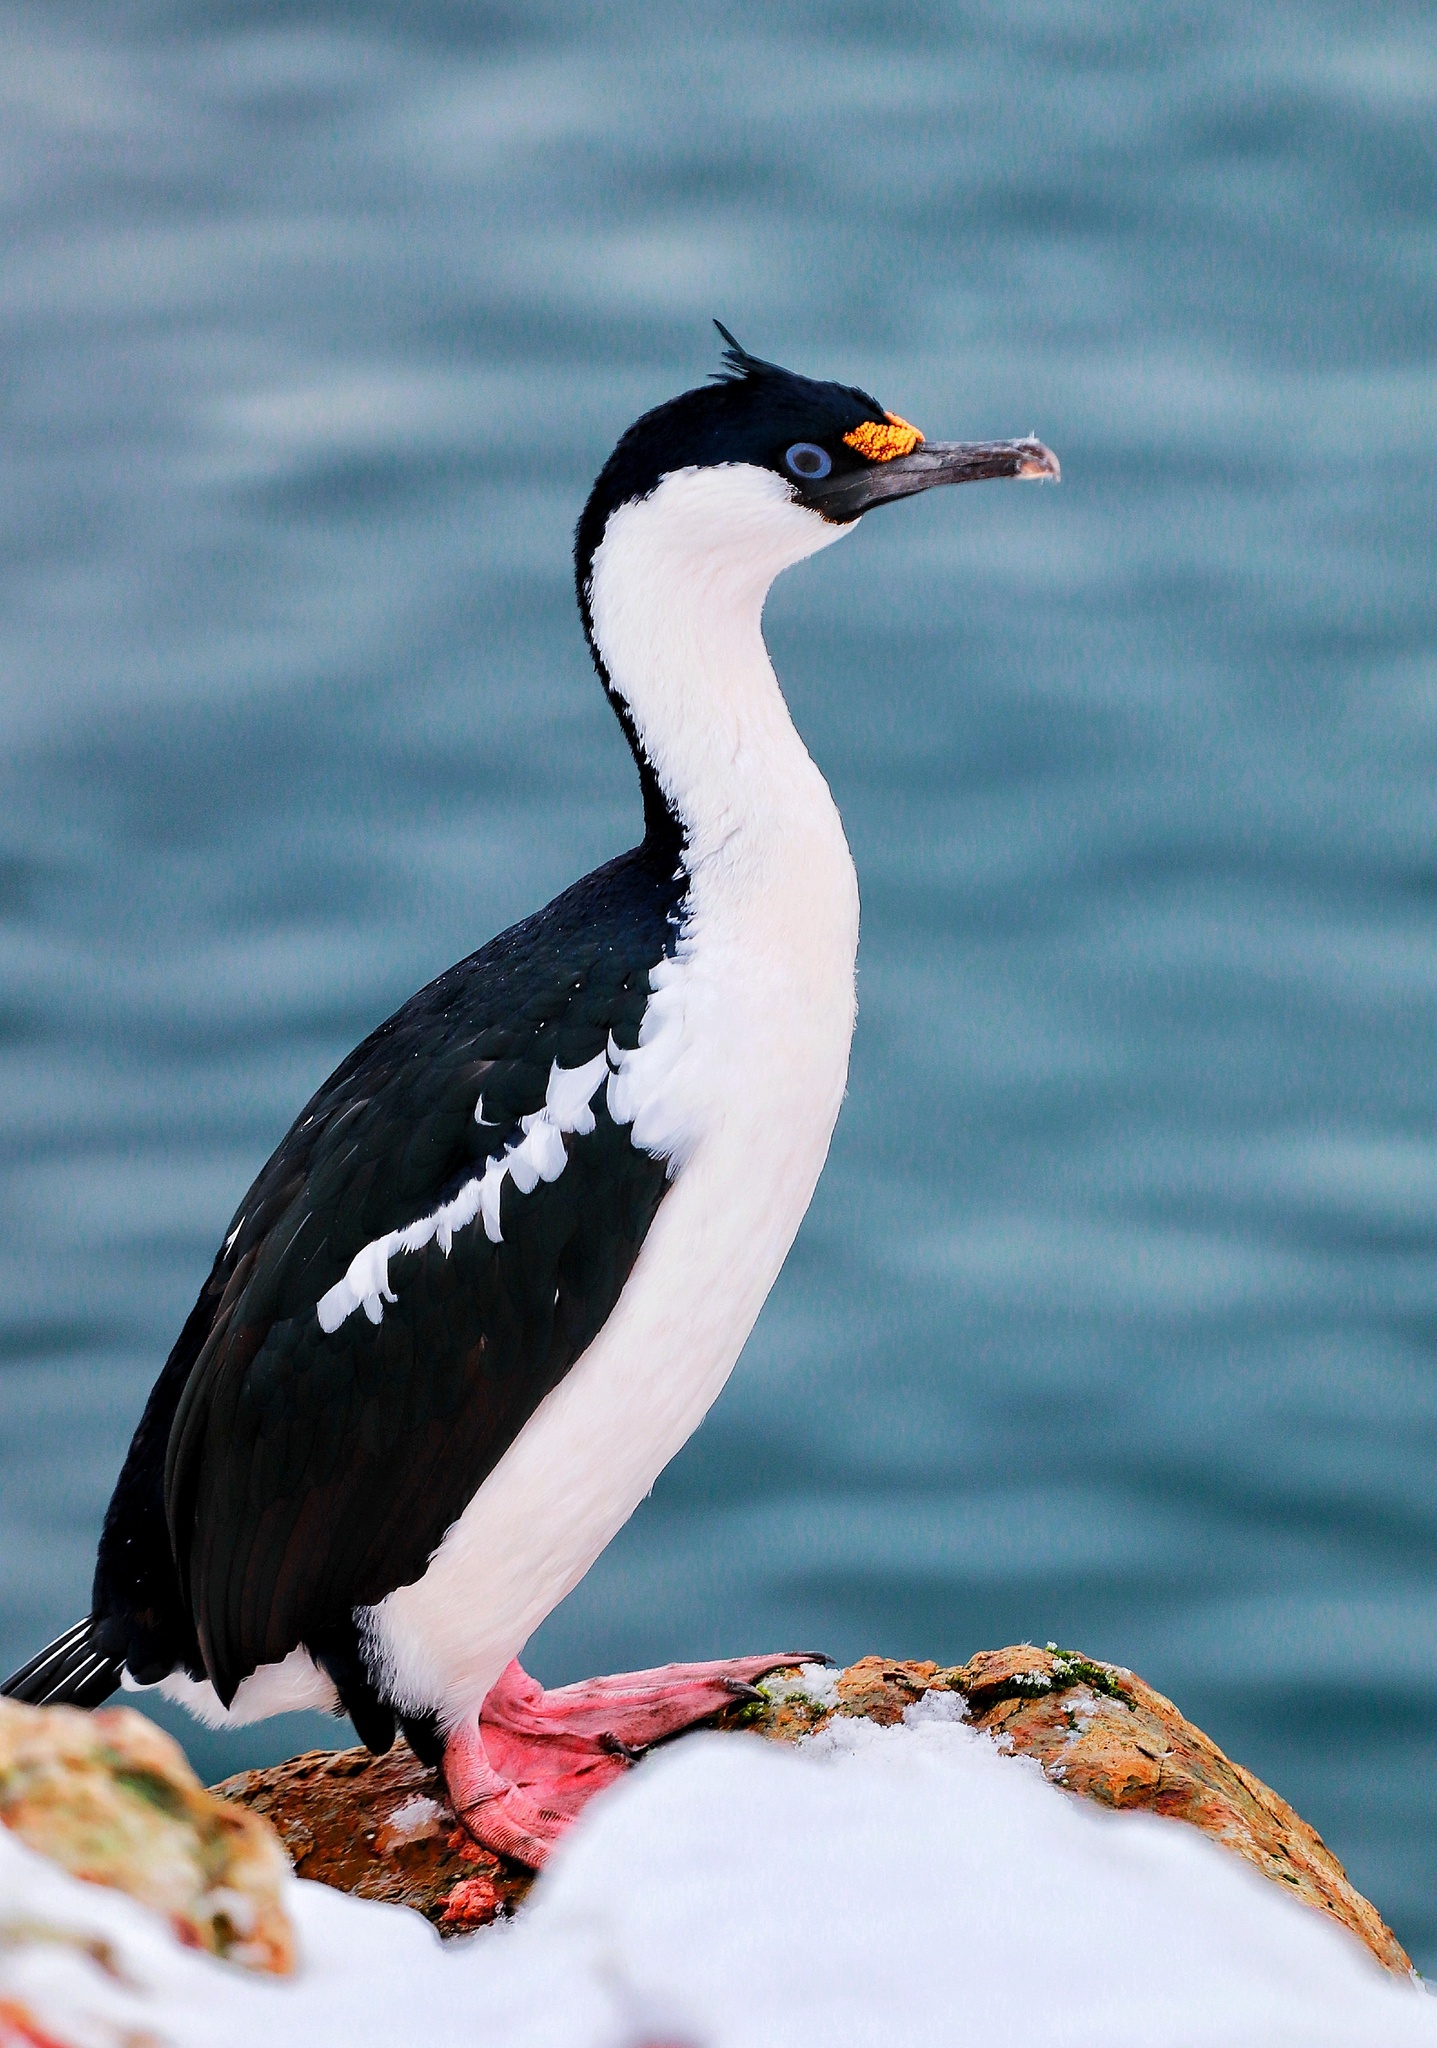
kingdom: Animalia
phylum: Chordata
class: Aves
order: Suliformes
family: Phalacrocoracidae
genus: Leucocarbo
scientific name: Leucocarbo atriceps
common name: Imperial shag
